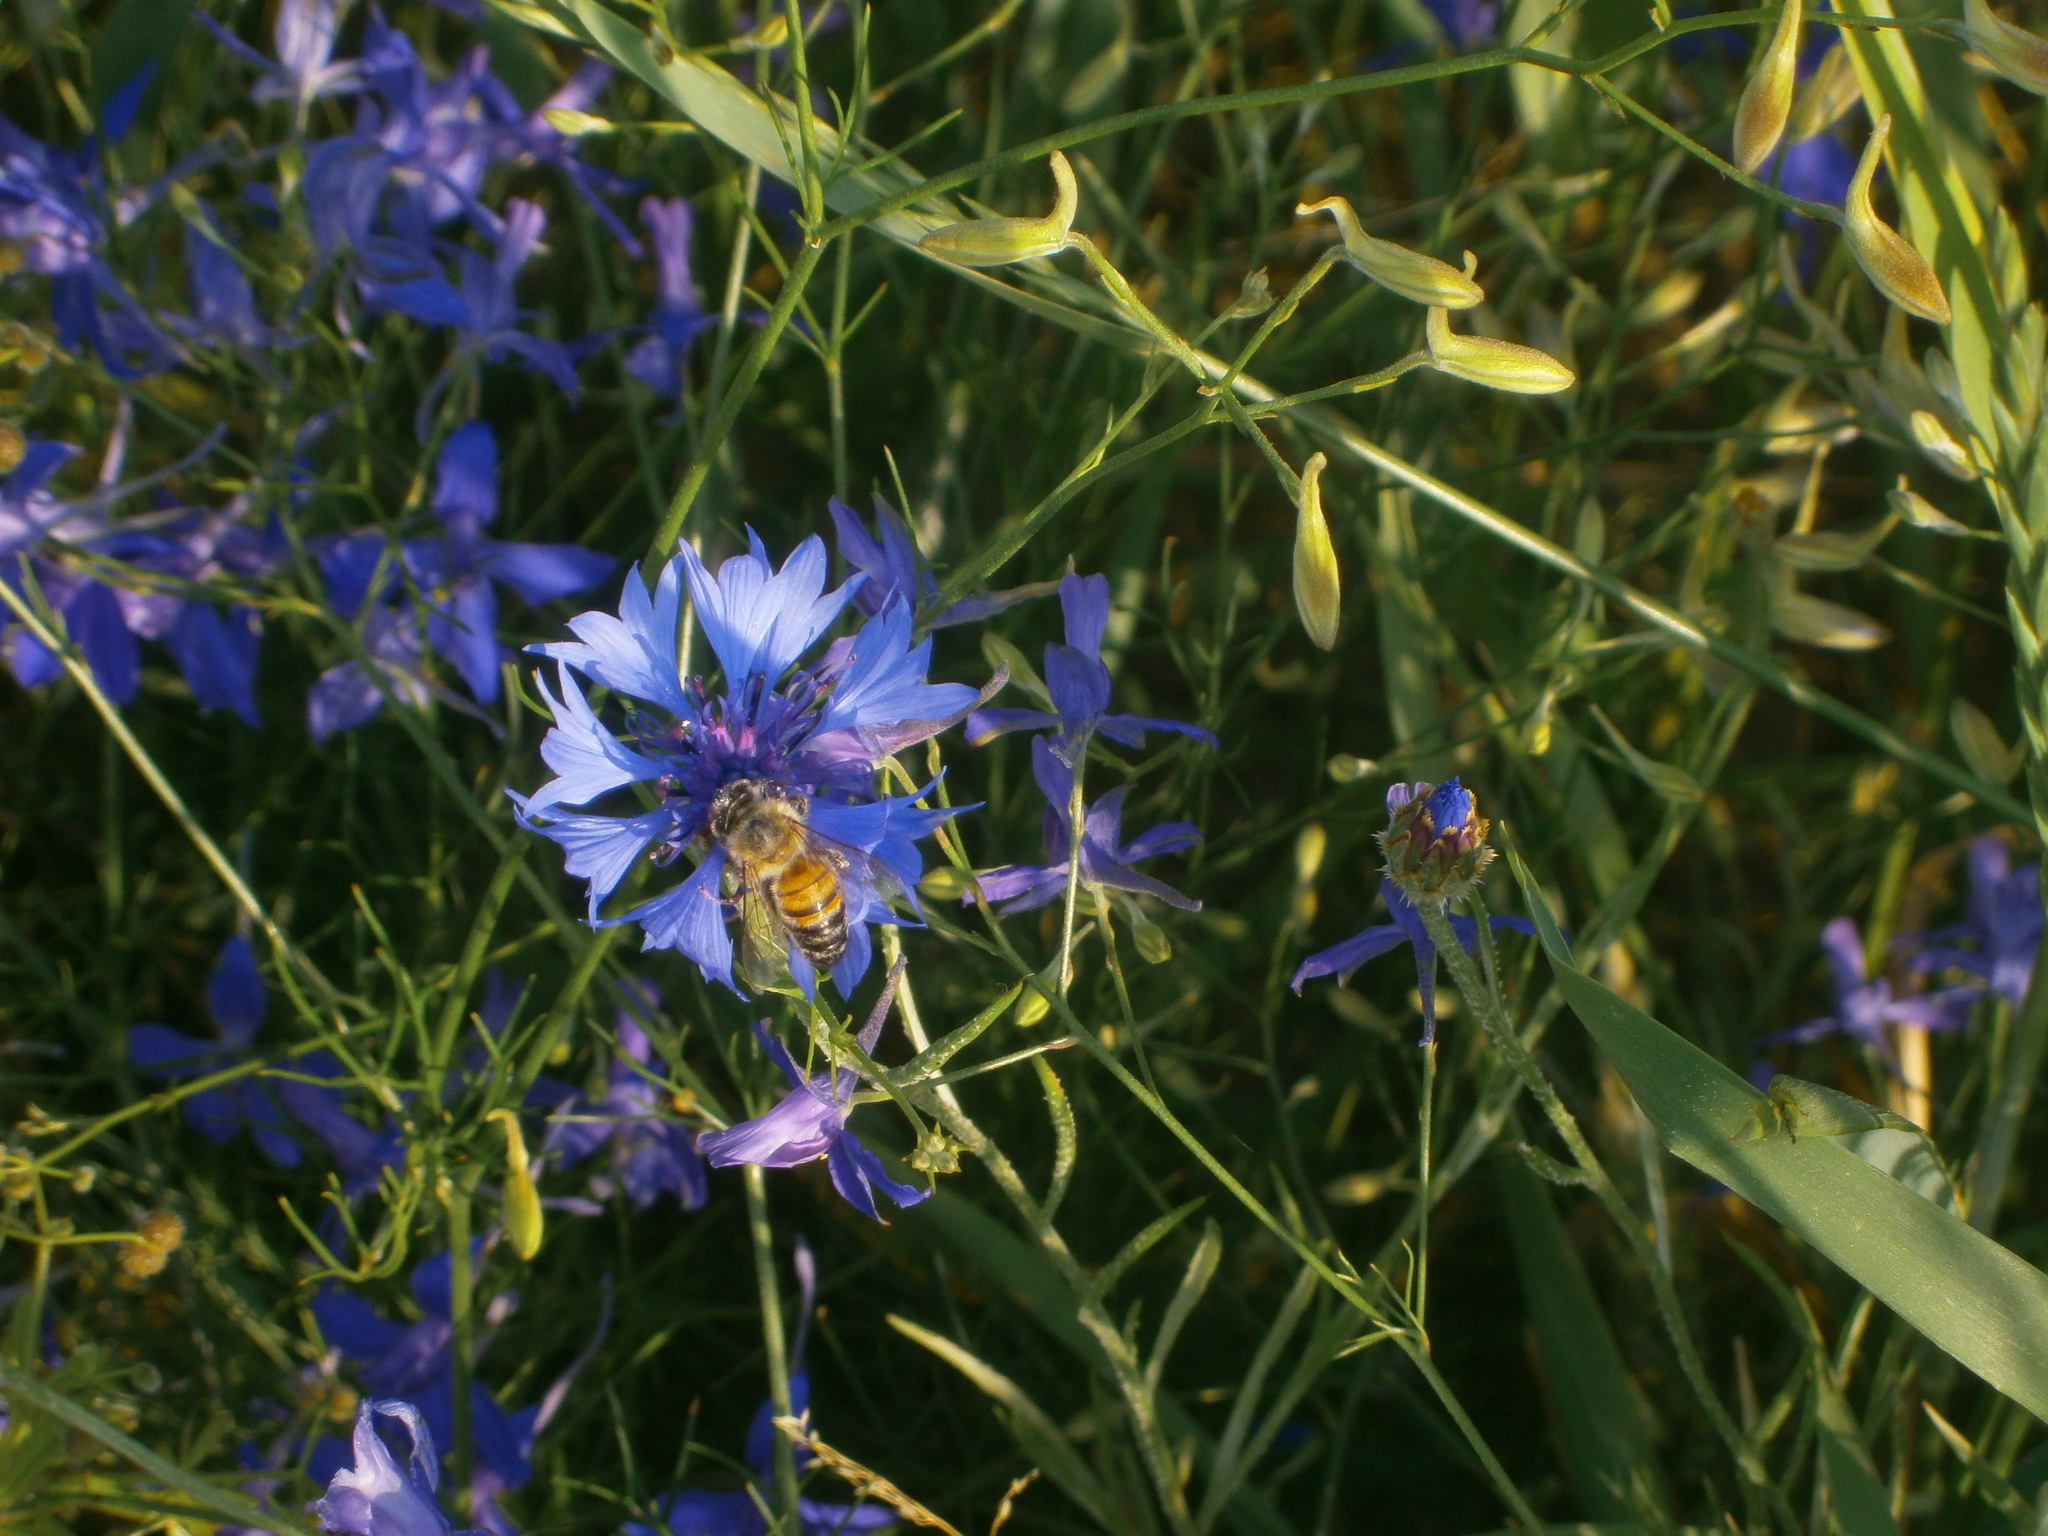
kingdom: Animalia
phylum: Arthropoda
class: Insecta
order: Hymenoptera
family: Apidae
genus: Apis
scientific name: Apis mellifera
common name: Honey bee
